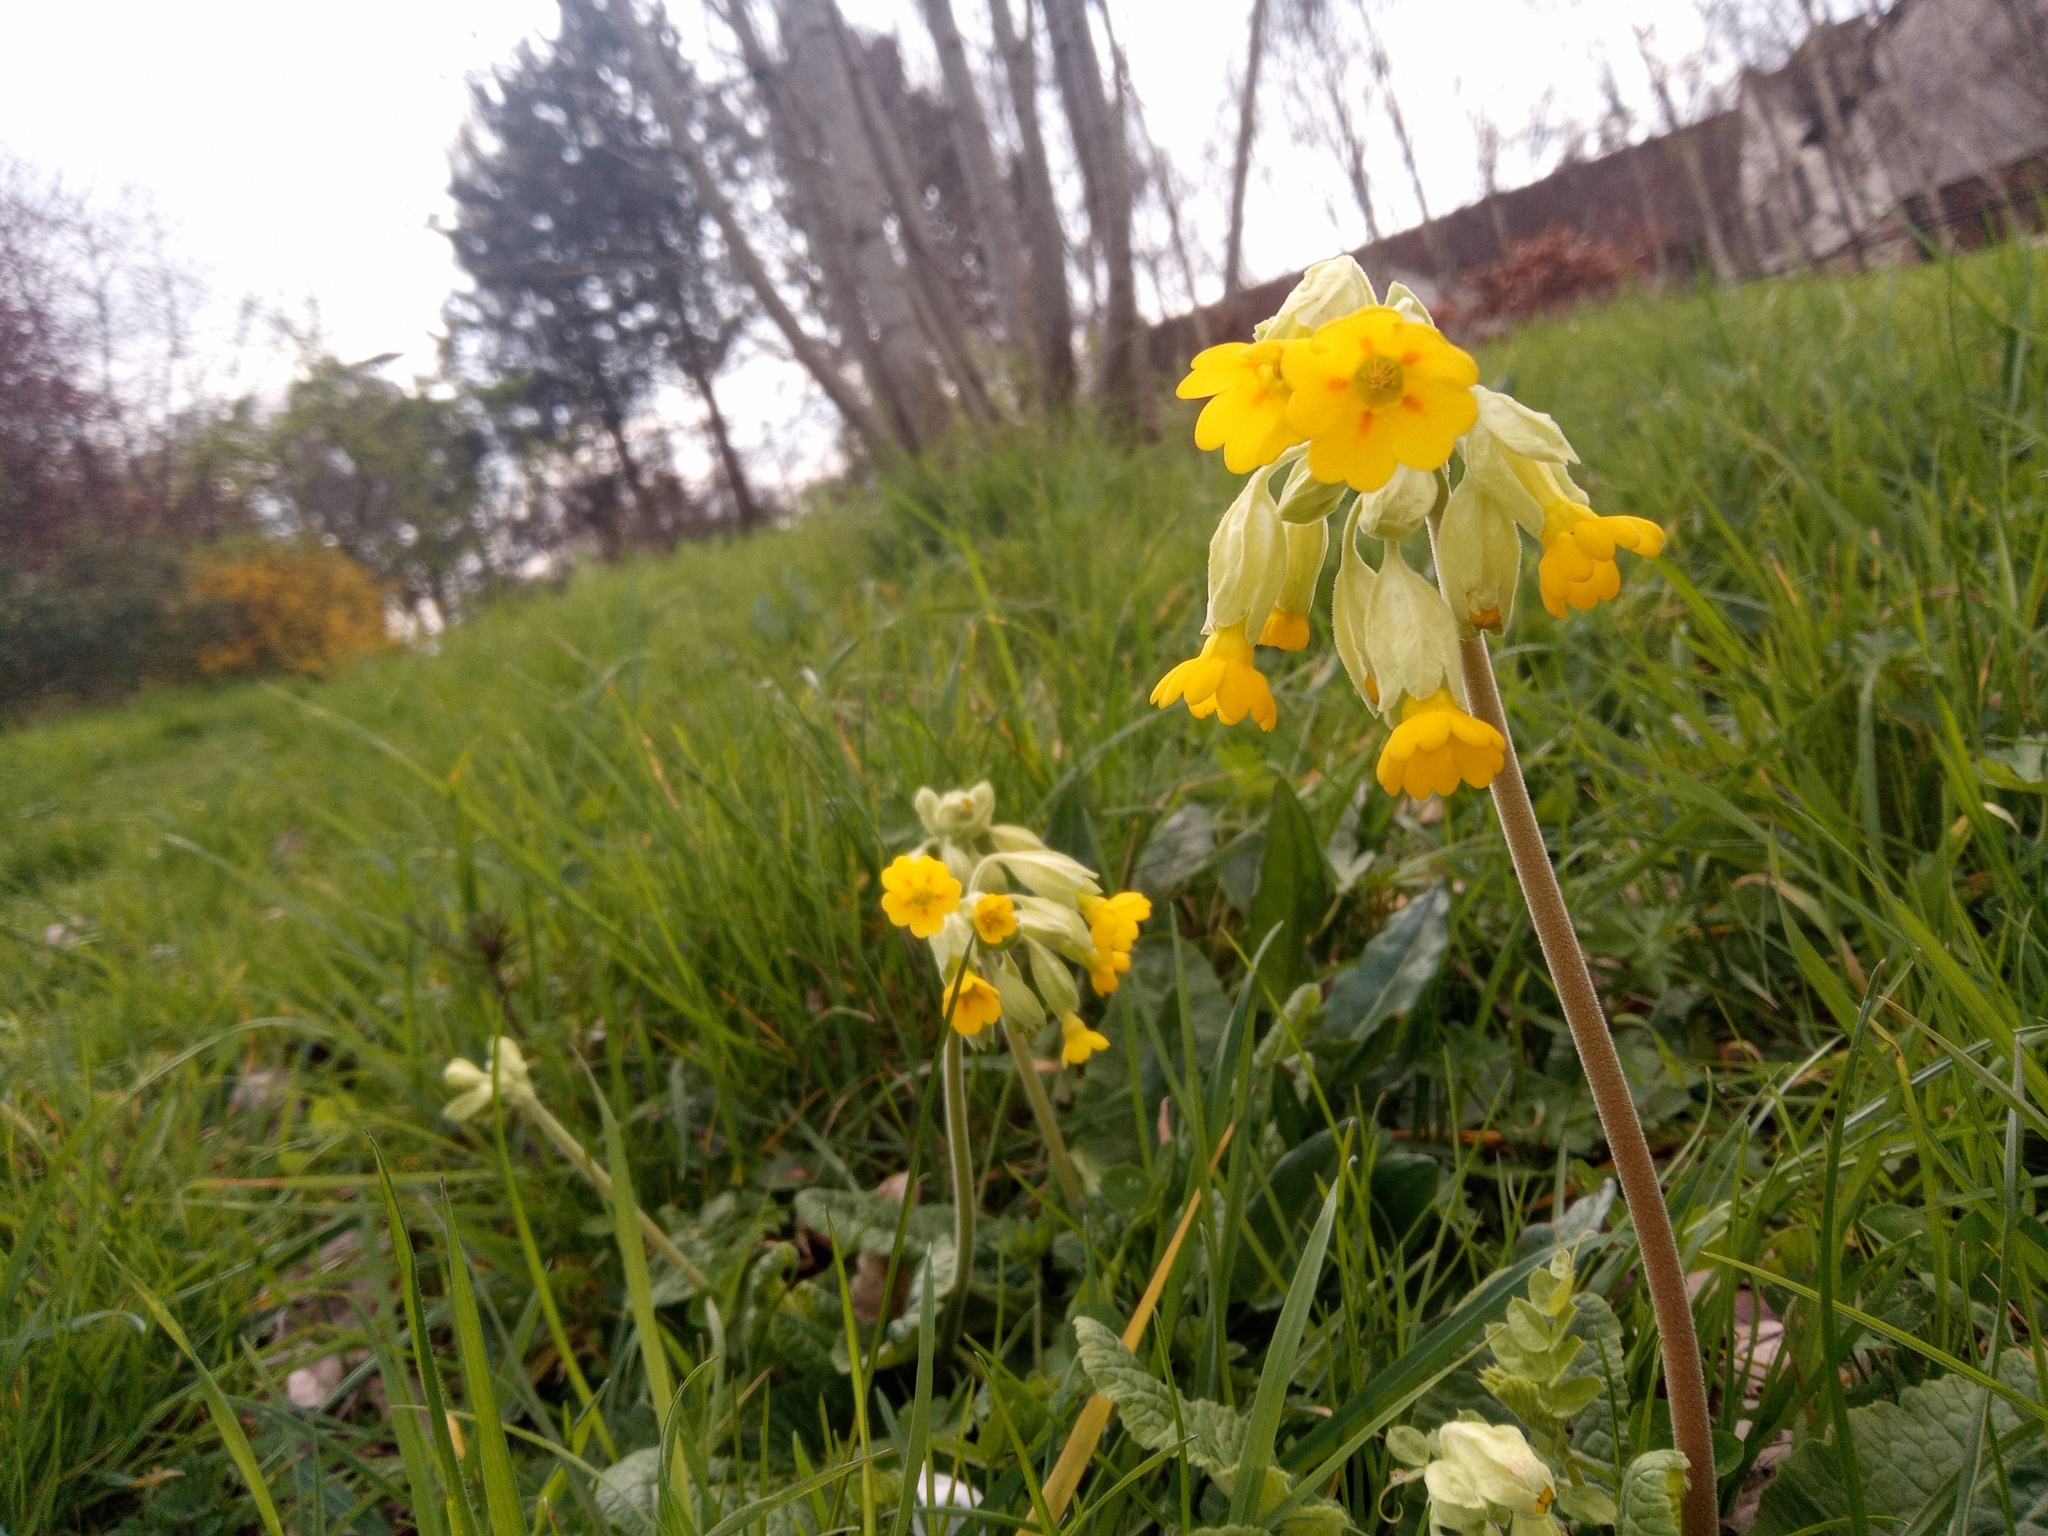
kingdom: Plantae
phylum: Tracheophyta
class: Magnoliopsida
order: Ericales
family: Primulaceae
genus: Primula
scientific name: Primula veris
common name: Cowslip
